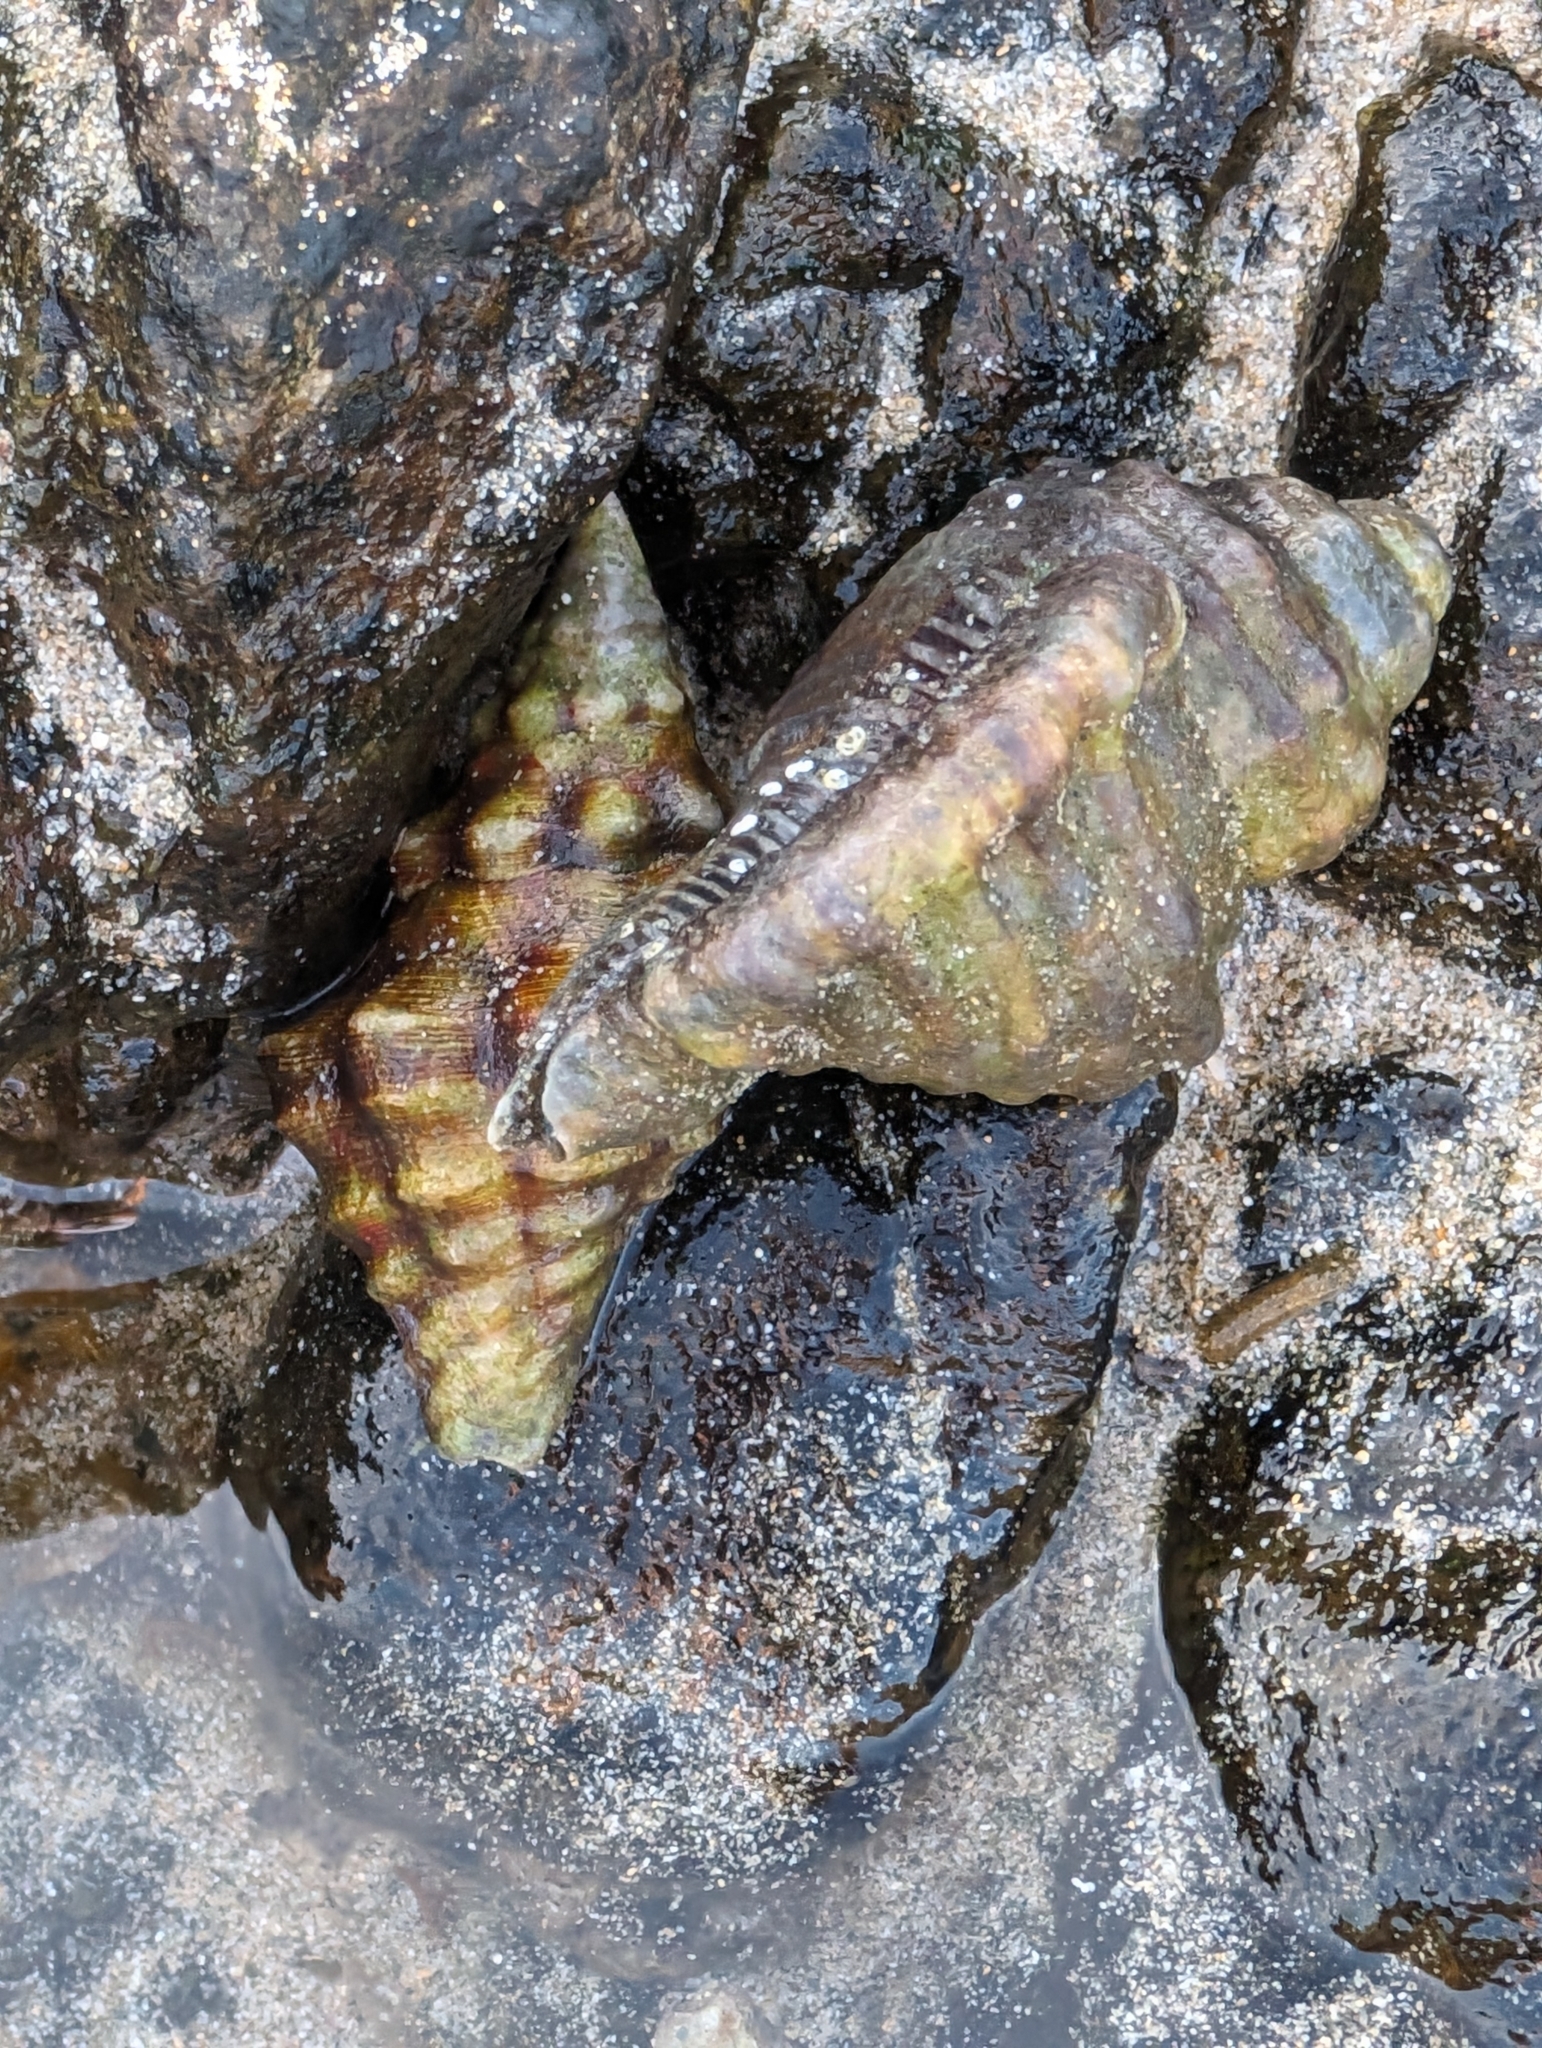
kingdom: Animalia
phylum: Mollusca
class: Gastropoda
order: Neogastropoda
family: Fasciolariidae
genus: Leucozonia
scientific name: Leucozonia cerata
